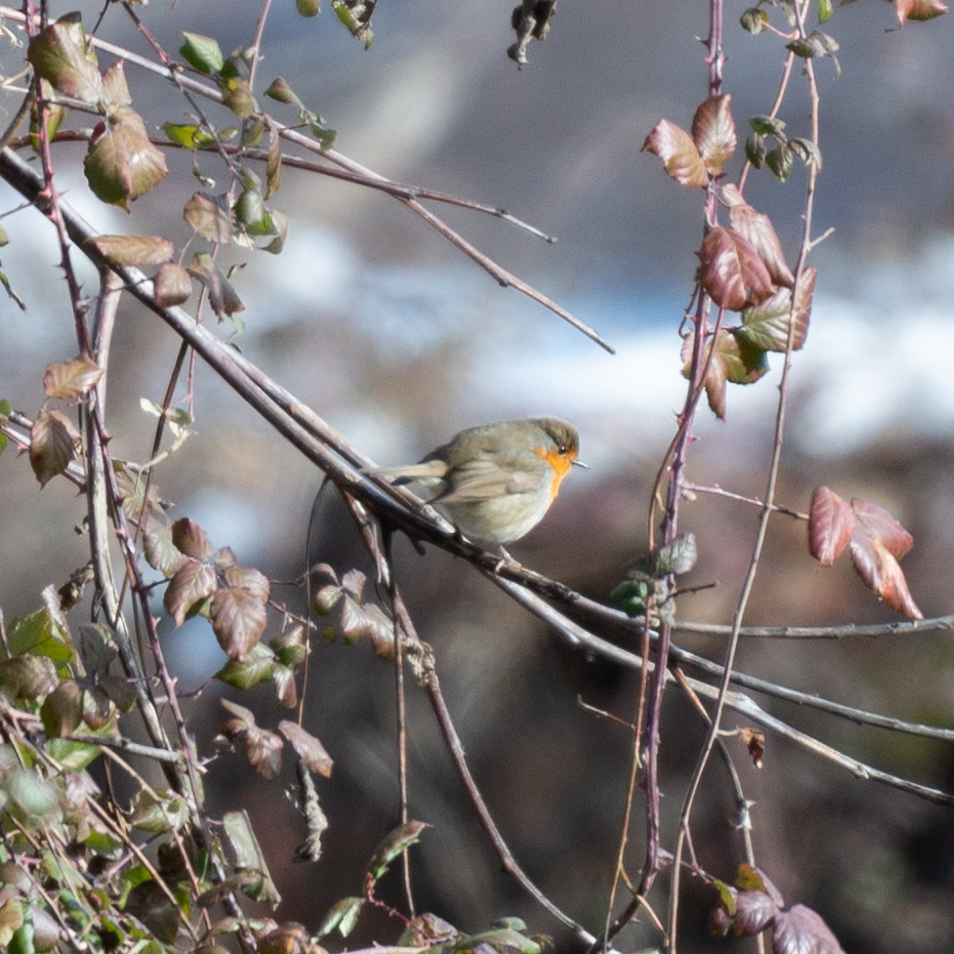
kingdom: Animalia
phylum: Chordata
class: Aves
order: Passeriformes
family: Muscicapidae
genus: Erithacus
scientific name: Erithacus rubecula
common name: European robin
